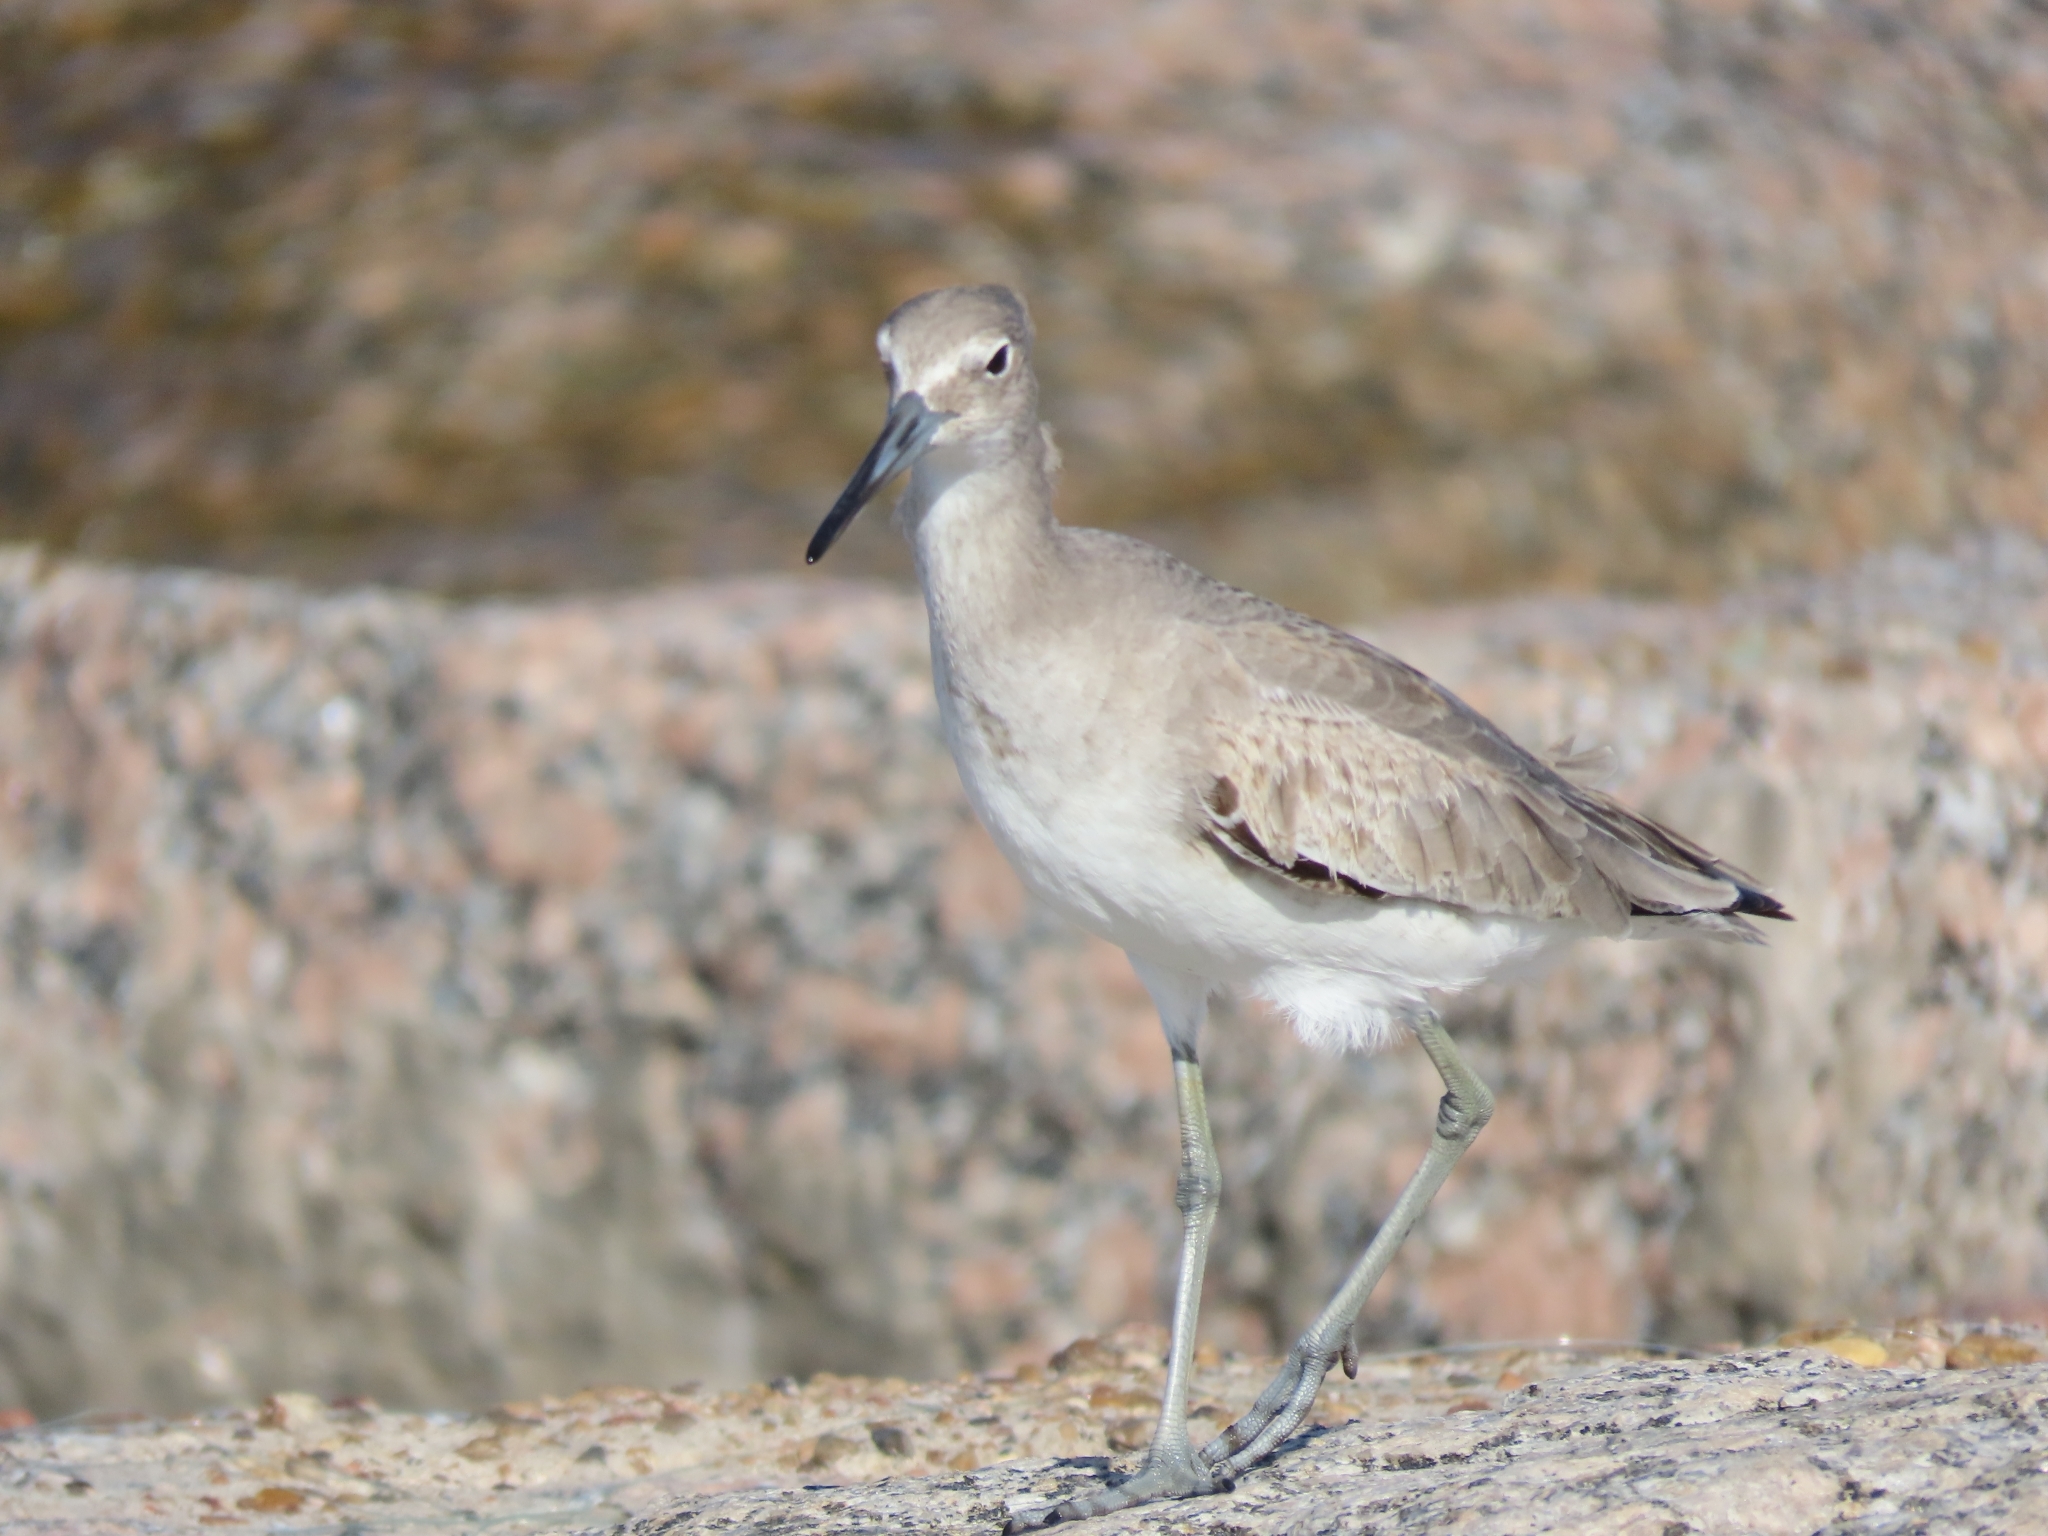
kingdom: Animalia
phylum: Chordata
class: Aves
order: Charadriiformes
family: Scolopacidae
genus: Tringa
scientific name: Tringa semipalmata
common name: Willet
